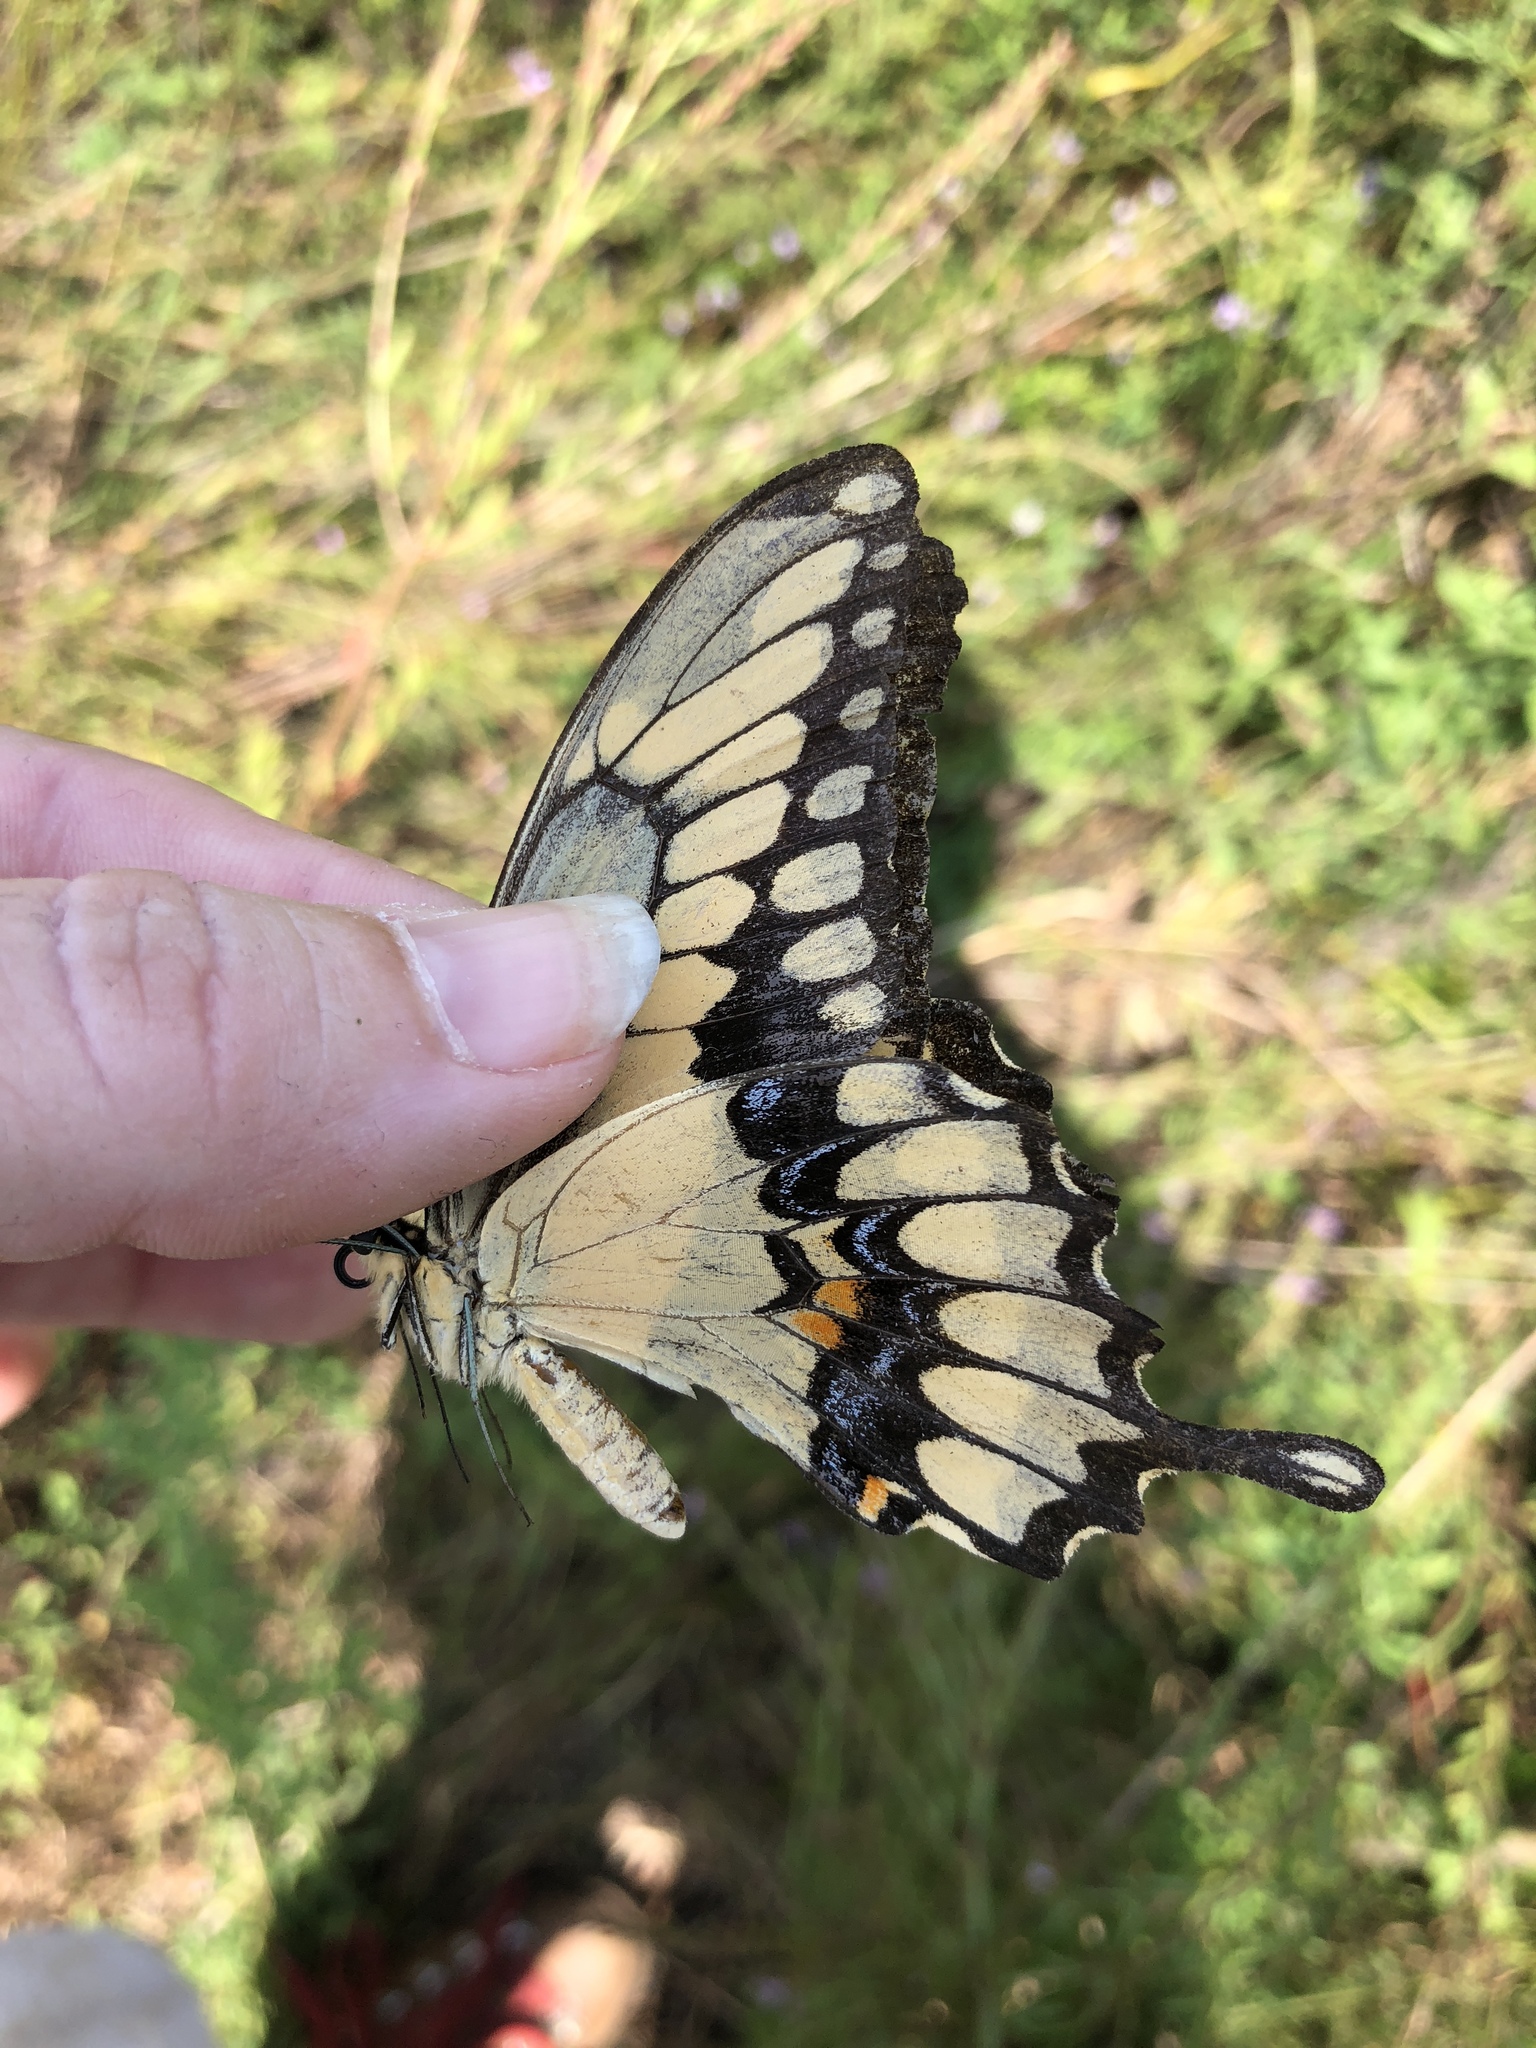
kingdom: Animalia
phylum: Arthropoda
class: Insecta
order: Lepidoptera
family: Papilionidae
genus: Papilio
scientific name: Papilio cresphontes
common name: Giant swallowtail
